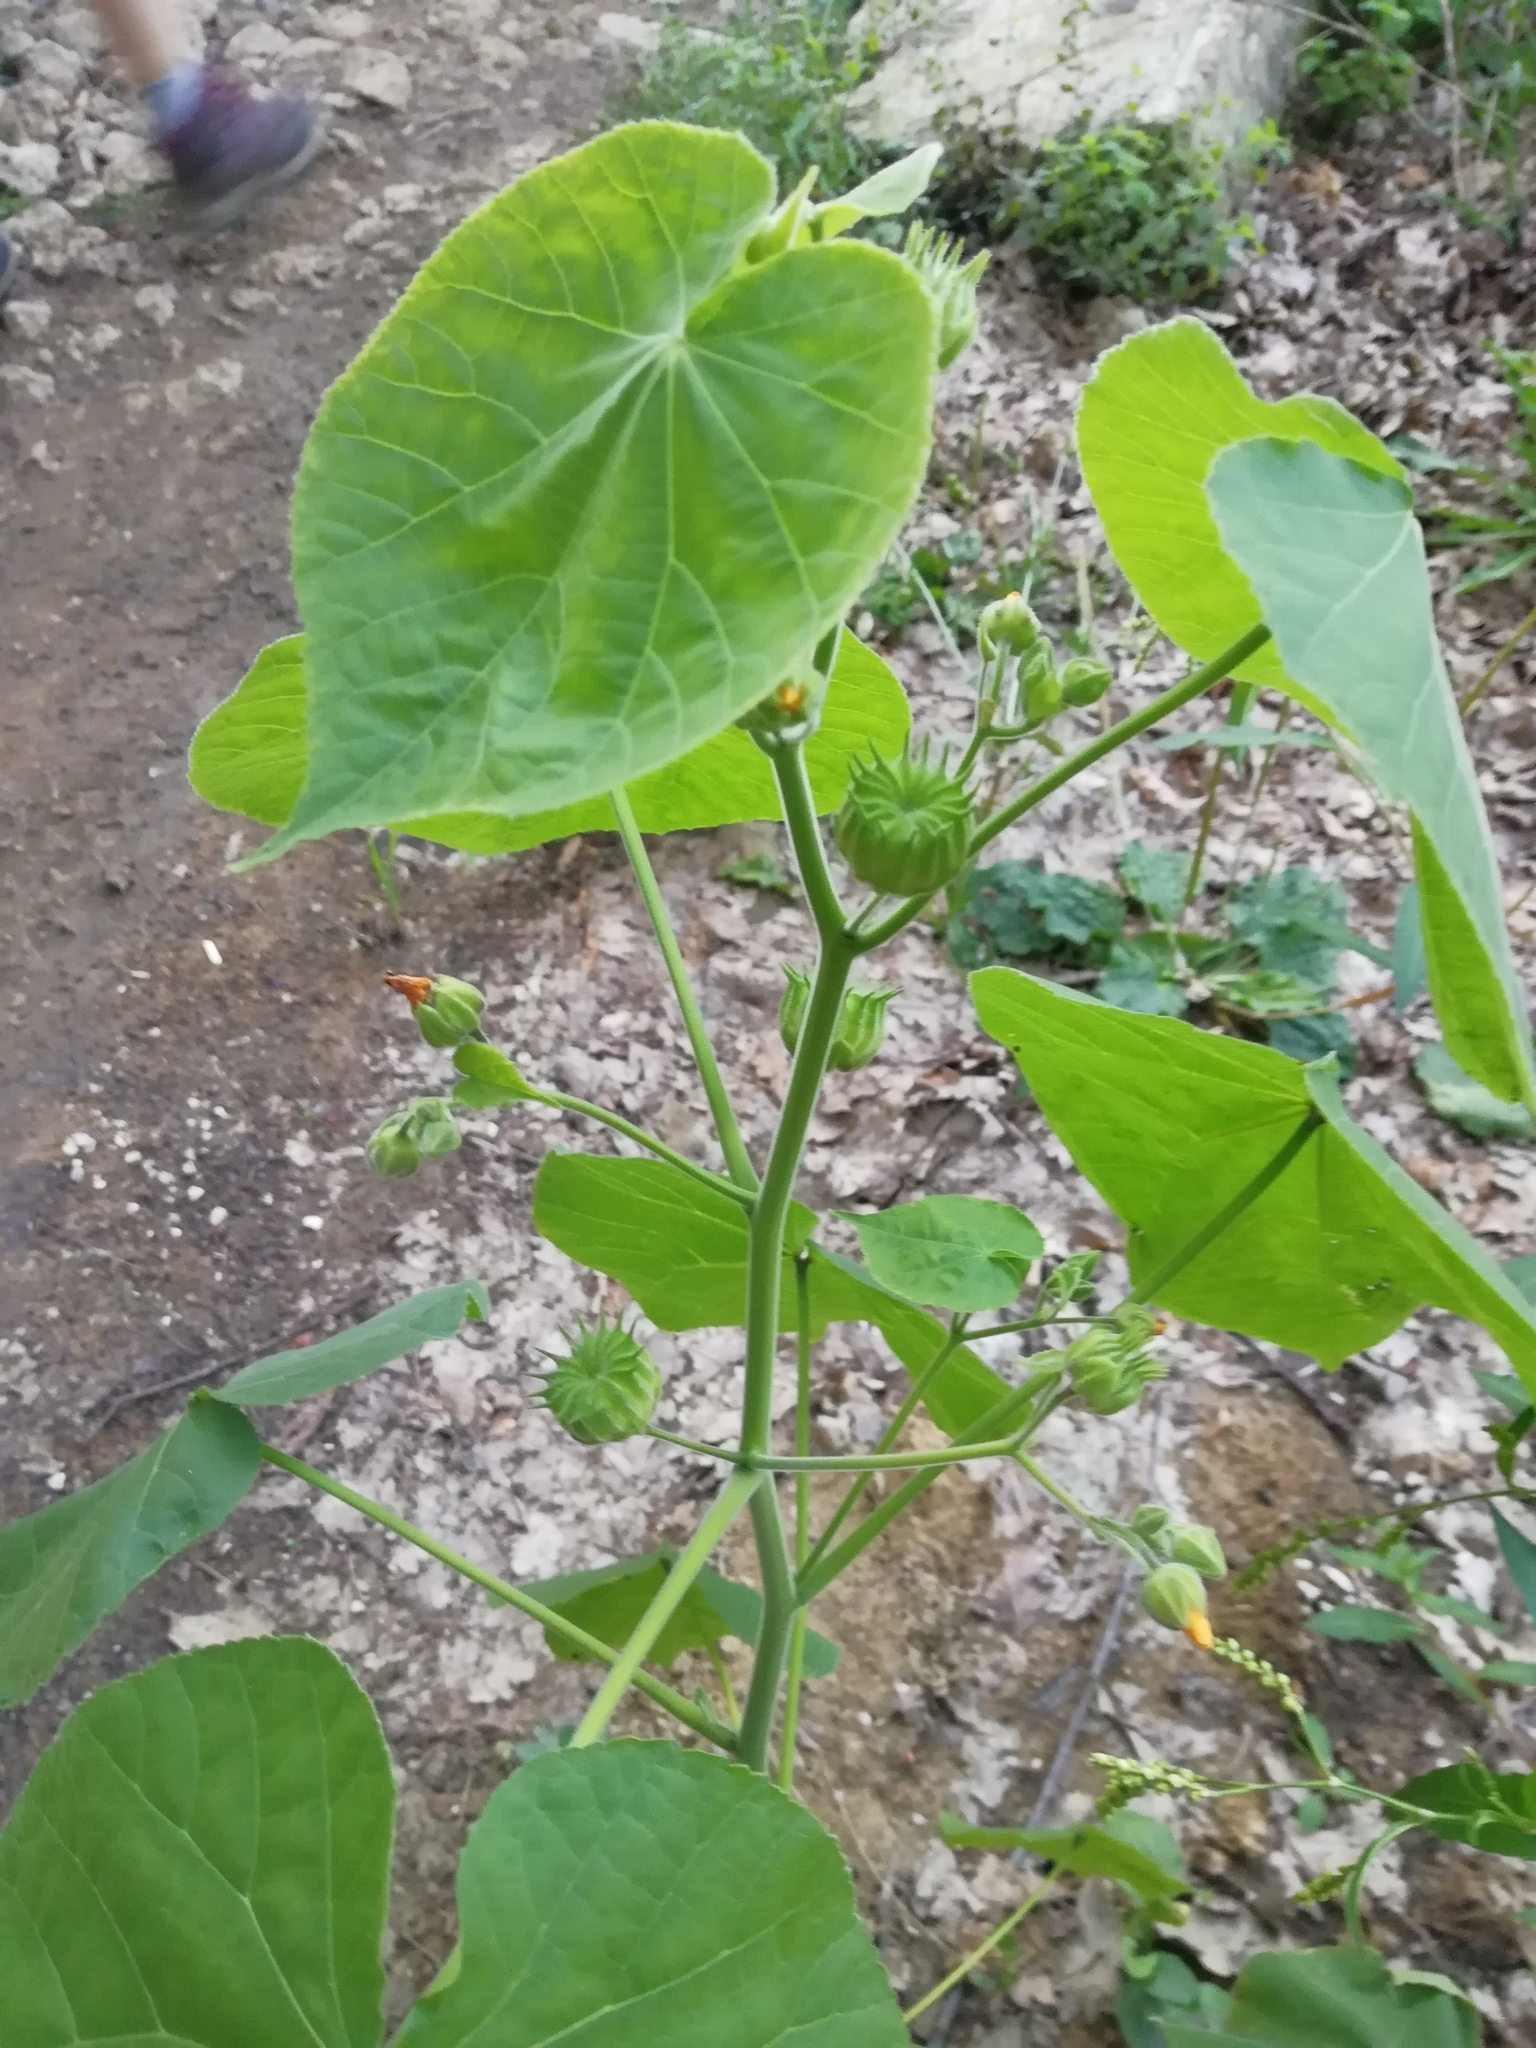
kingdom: Plantae
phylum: Tracheophyta
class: Magnoliopsida
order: Malvales
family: Malvaceae
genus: Abutilon
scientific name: Abutilon theophrasti
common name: Velvetleaf
